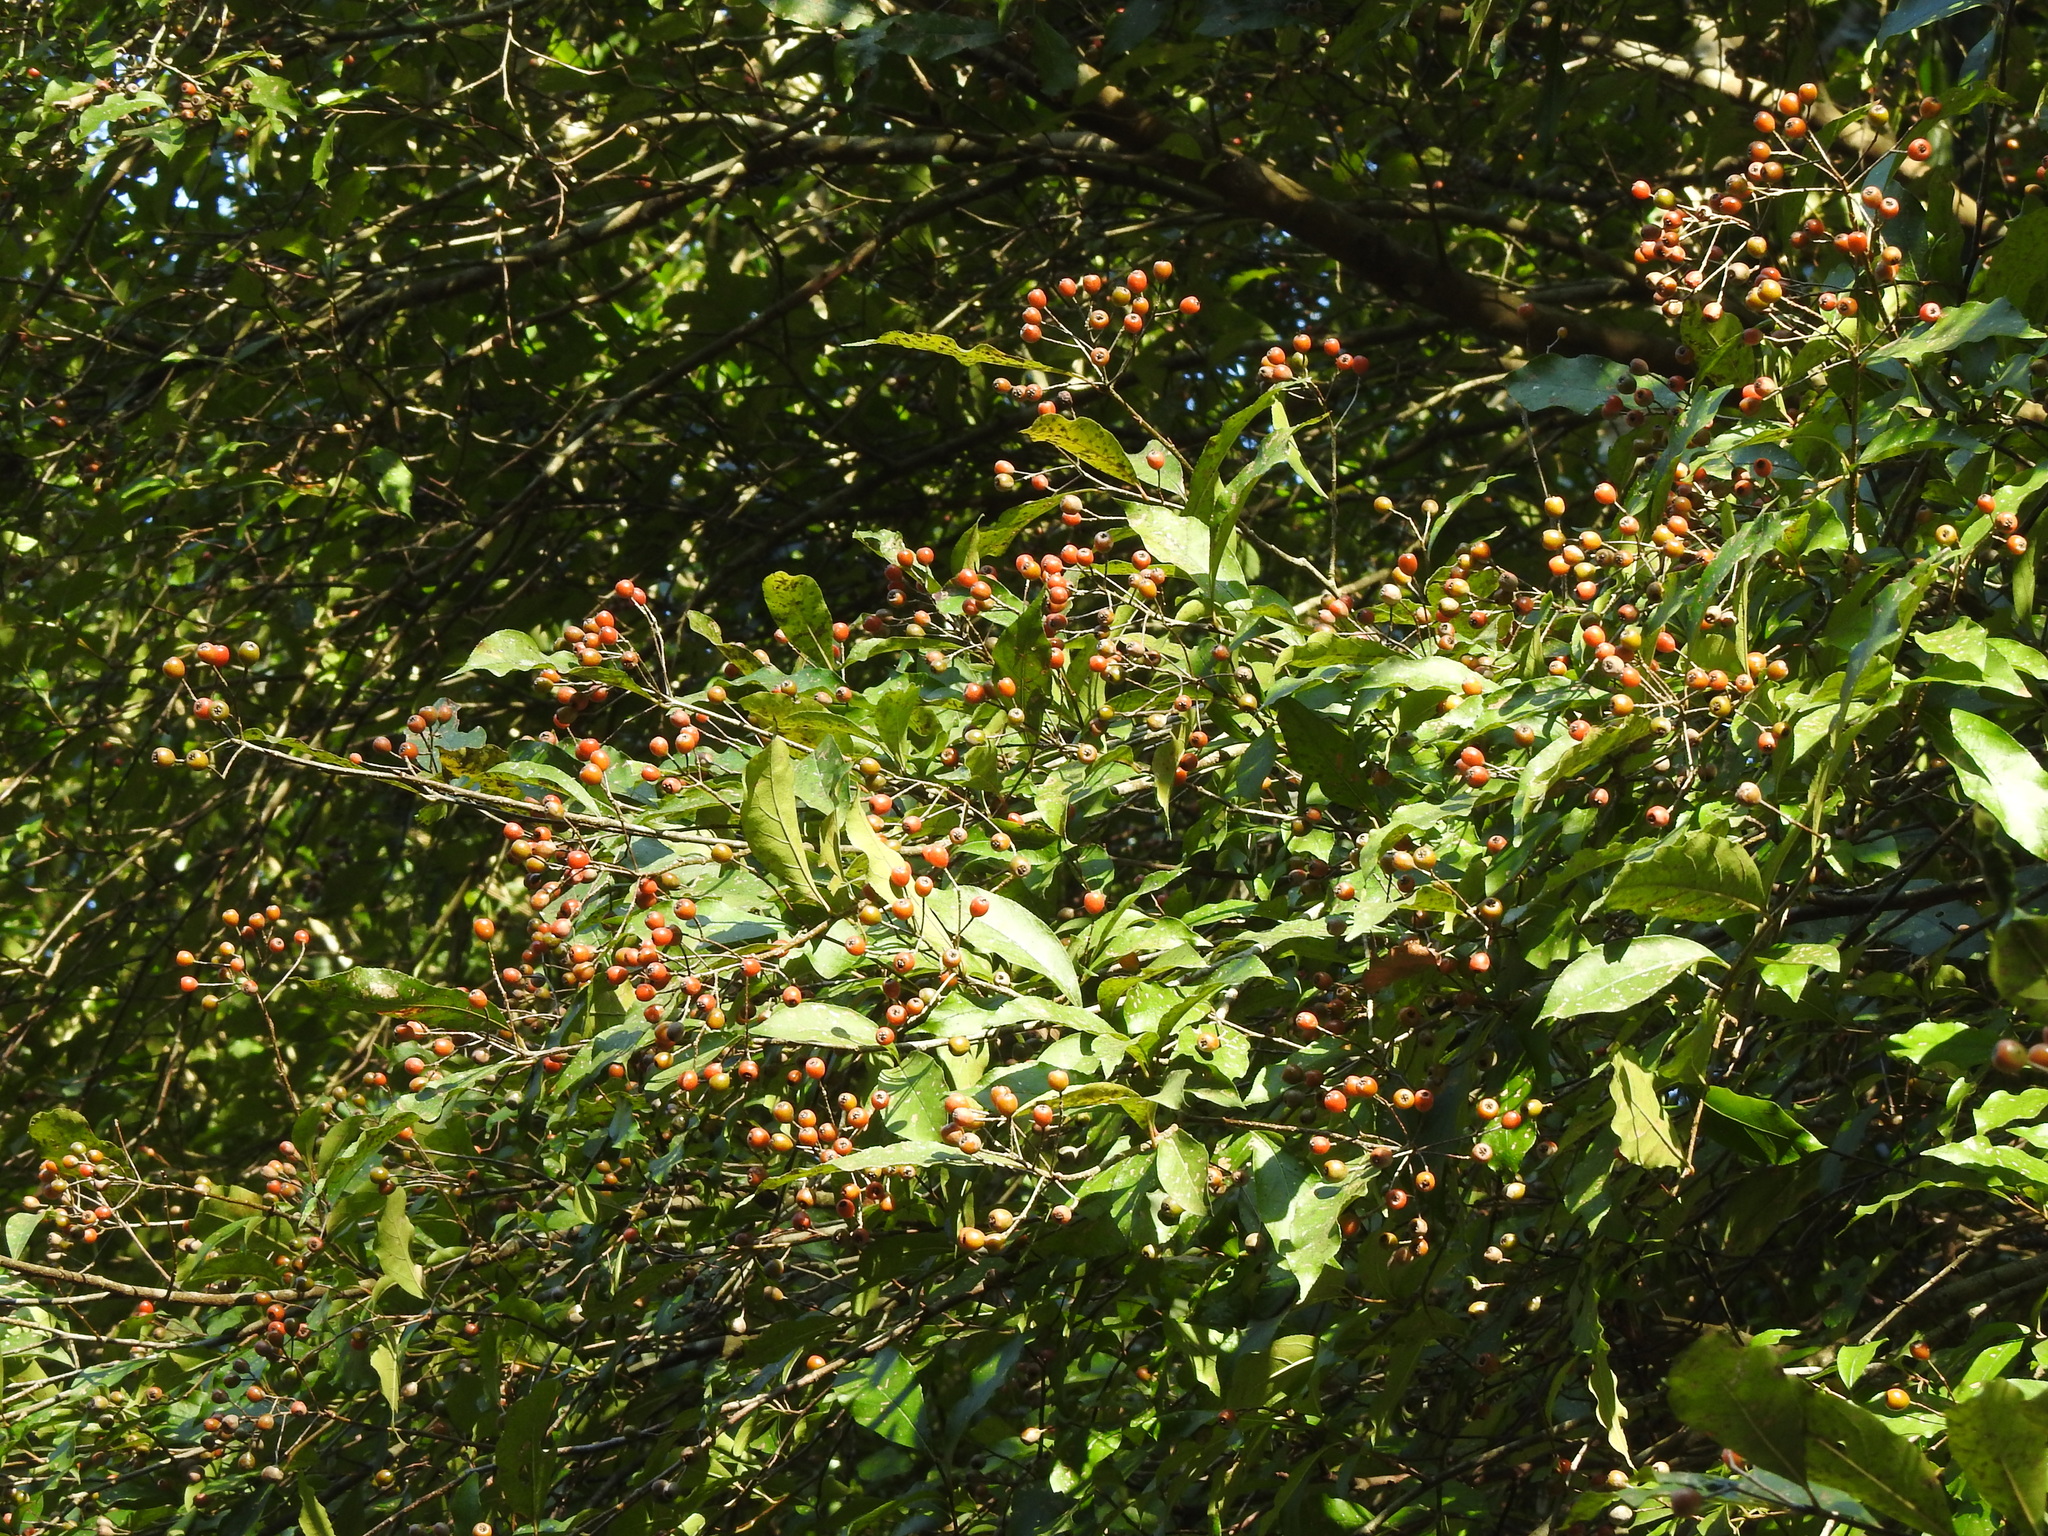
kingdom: Plantae
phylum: Tracheophyta
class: Magnoliopsida
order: Rosales
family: Rosaceae
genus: Pourthiaea
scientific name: Pourthiaea arguta
